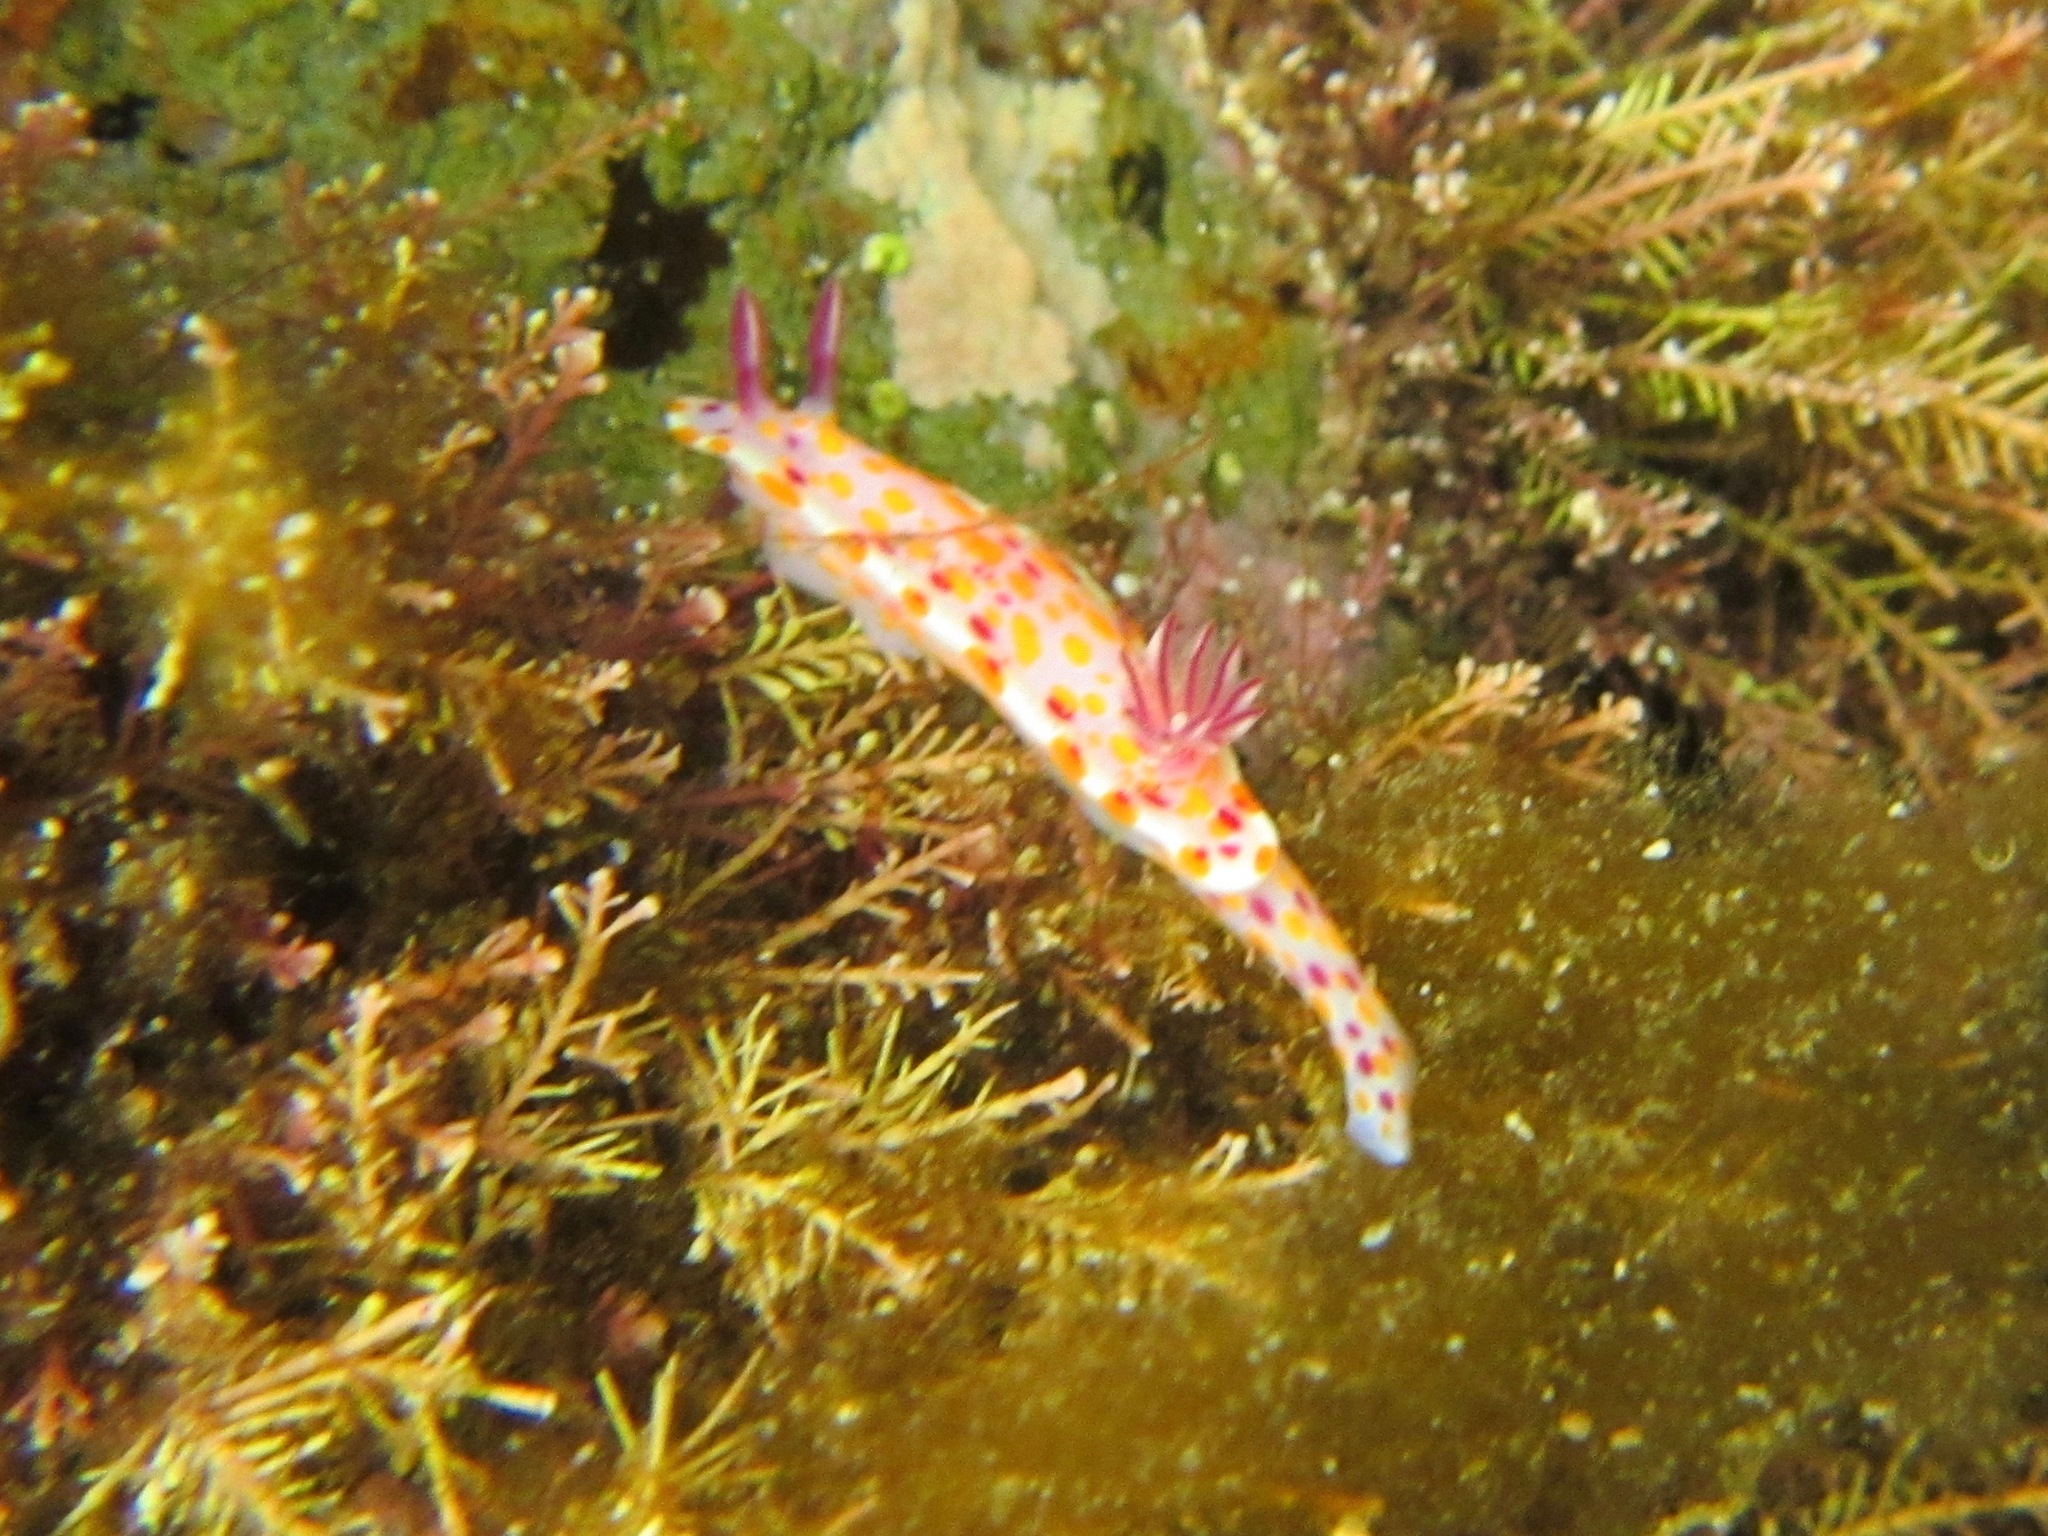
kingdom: Animalia
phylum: Mollusca
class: Gastropoda
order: Nudibranchia
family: Chromodorididae
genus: Ceratosoma
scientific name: Ceratosoma amoenum
